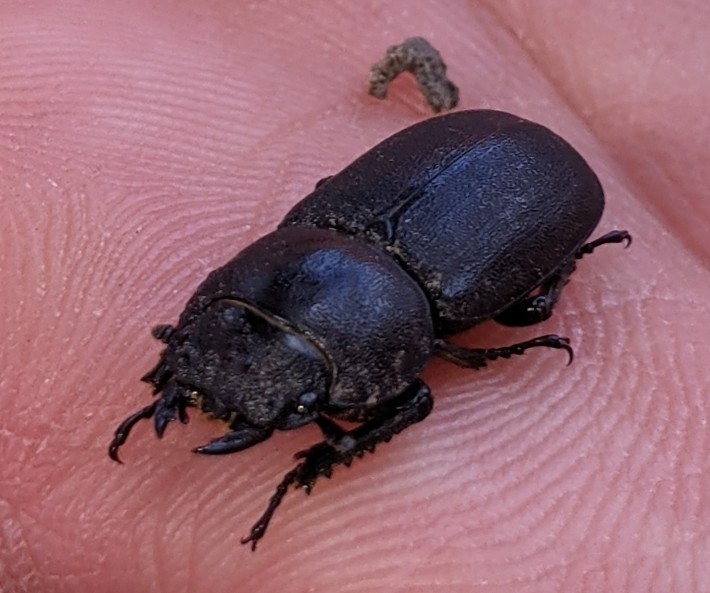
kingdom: Animalia
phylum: Arthropoda
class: Insecta
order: Coleoptera
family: Lucanidae
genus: Dorcus
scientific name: Dorcus parallelipipedus
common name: Lesser stag beetle
